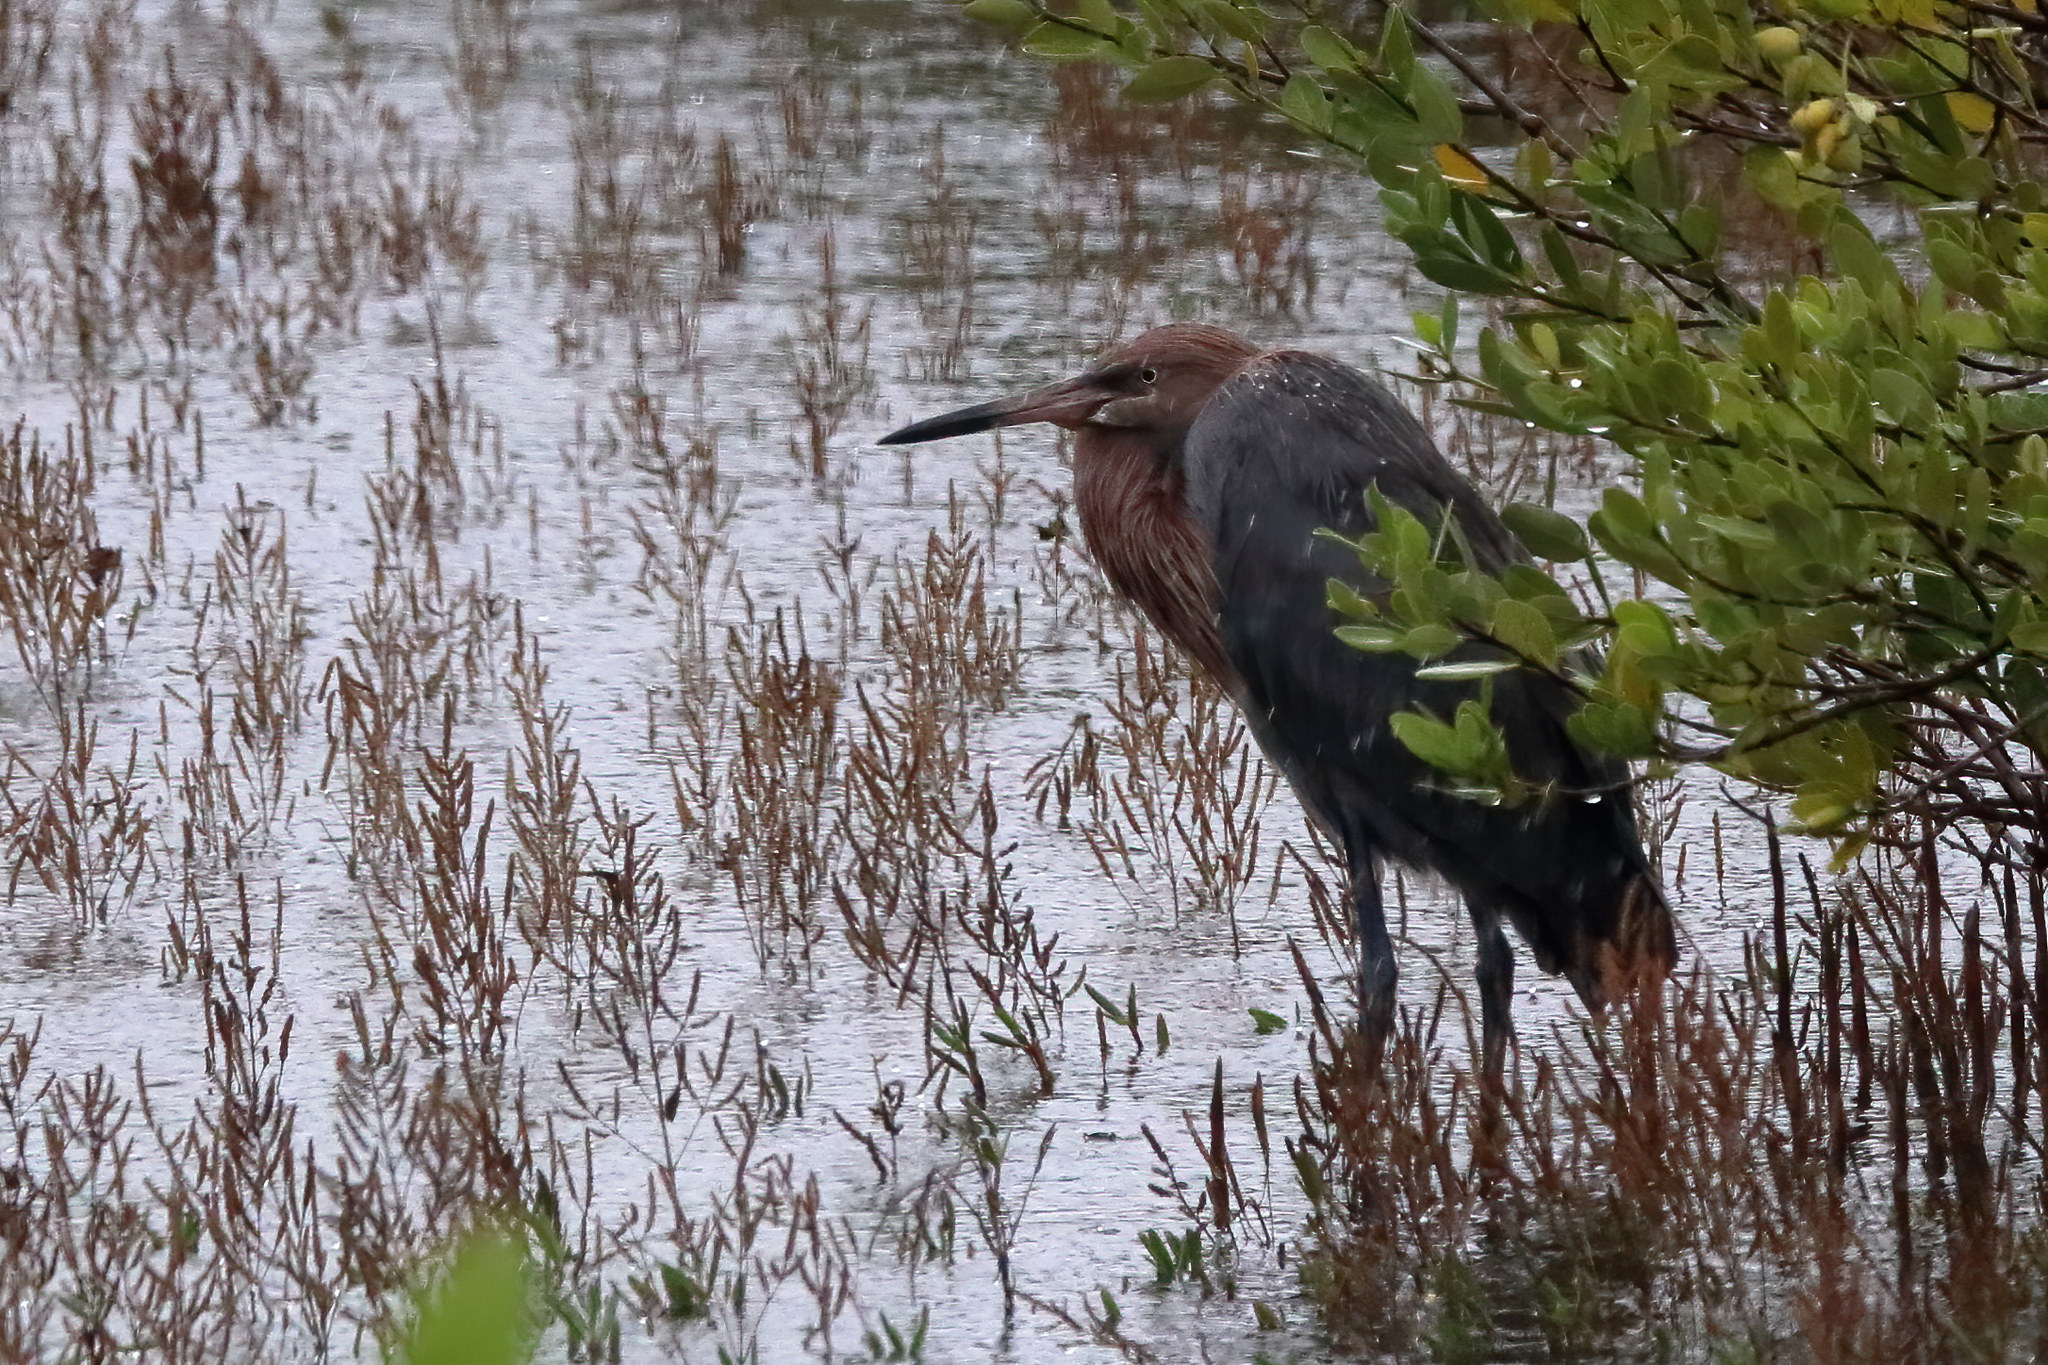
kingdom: Animalia
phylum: Chordata
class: Aves
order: Pelecaniformes
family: Ardeidae
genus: Egretta
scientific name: Egretta rufescens
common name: Reddish egret
